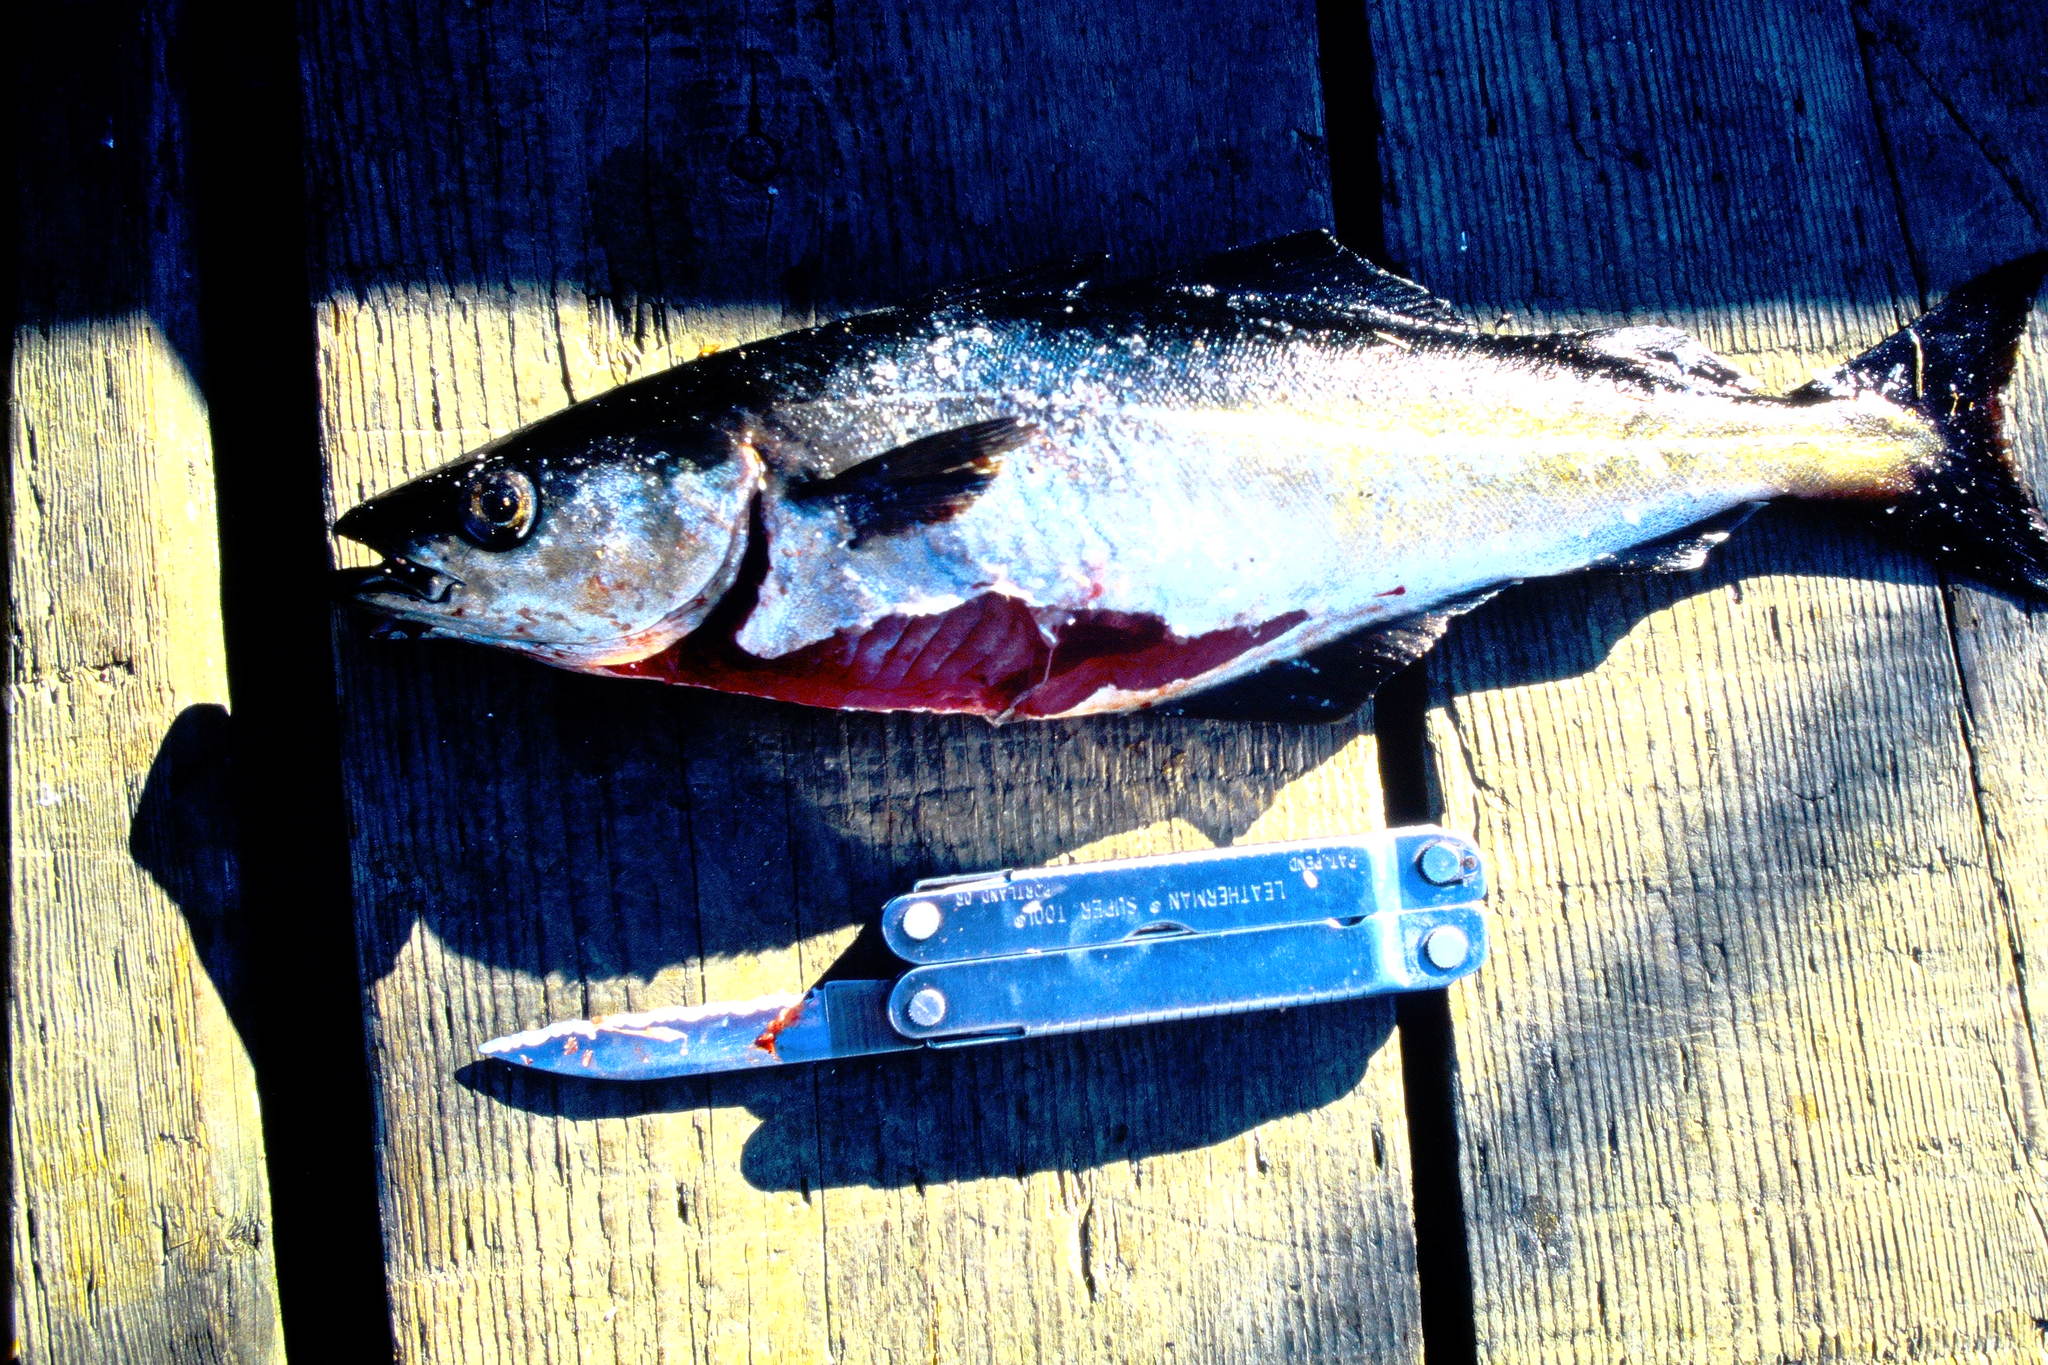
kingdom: Animalia
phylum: Chordata
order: Gadiformes
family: Gadidae
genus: Pollachius
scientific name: Pollachius virens
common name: Saithe
